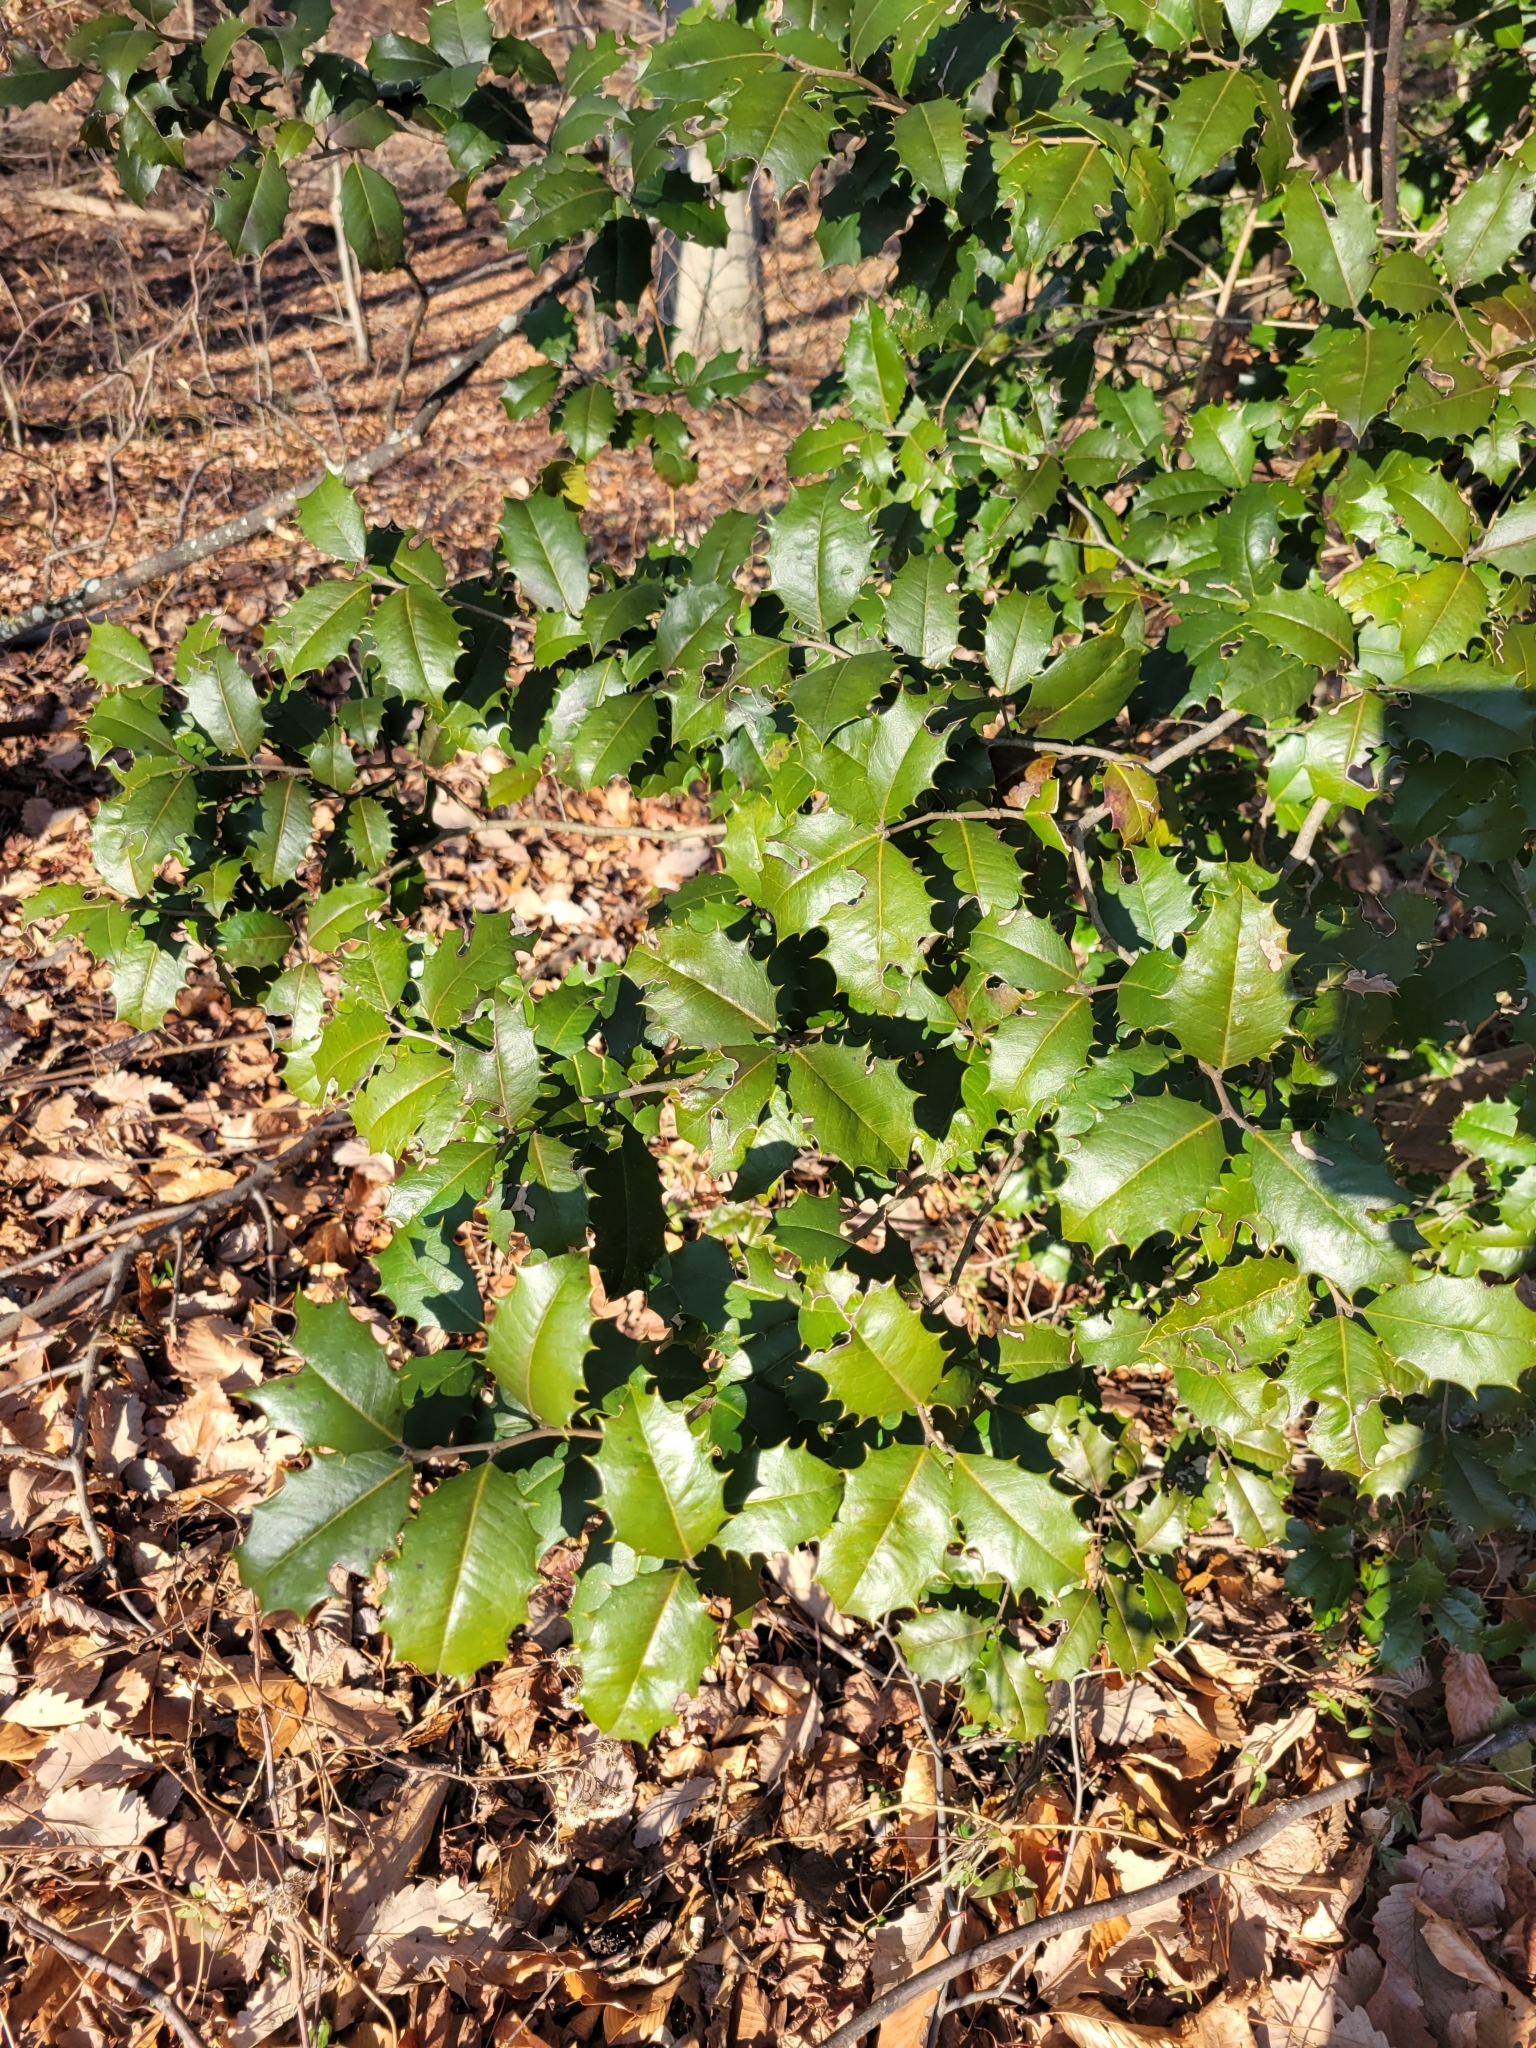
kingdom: Plantae
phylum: Tracheophyta
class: Magnoliopsida
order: Aquifoliales
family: Aquifoliaceae
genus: Ilex
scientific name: Ilex opaca
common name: American holly
